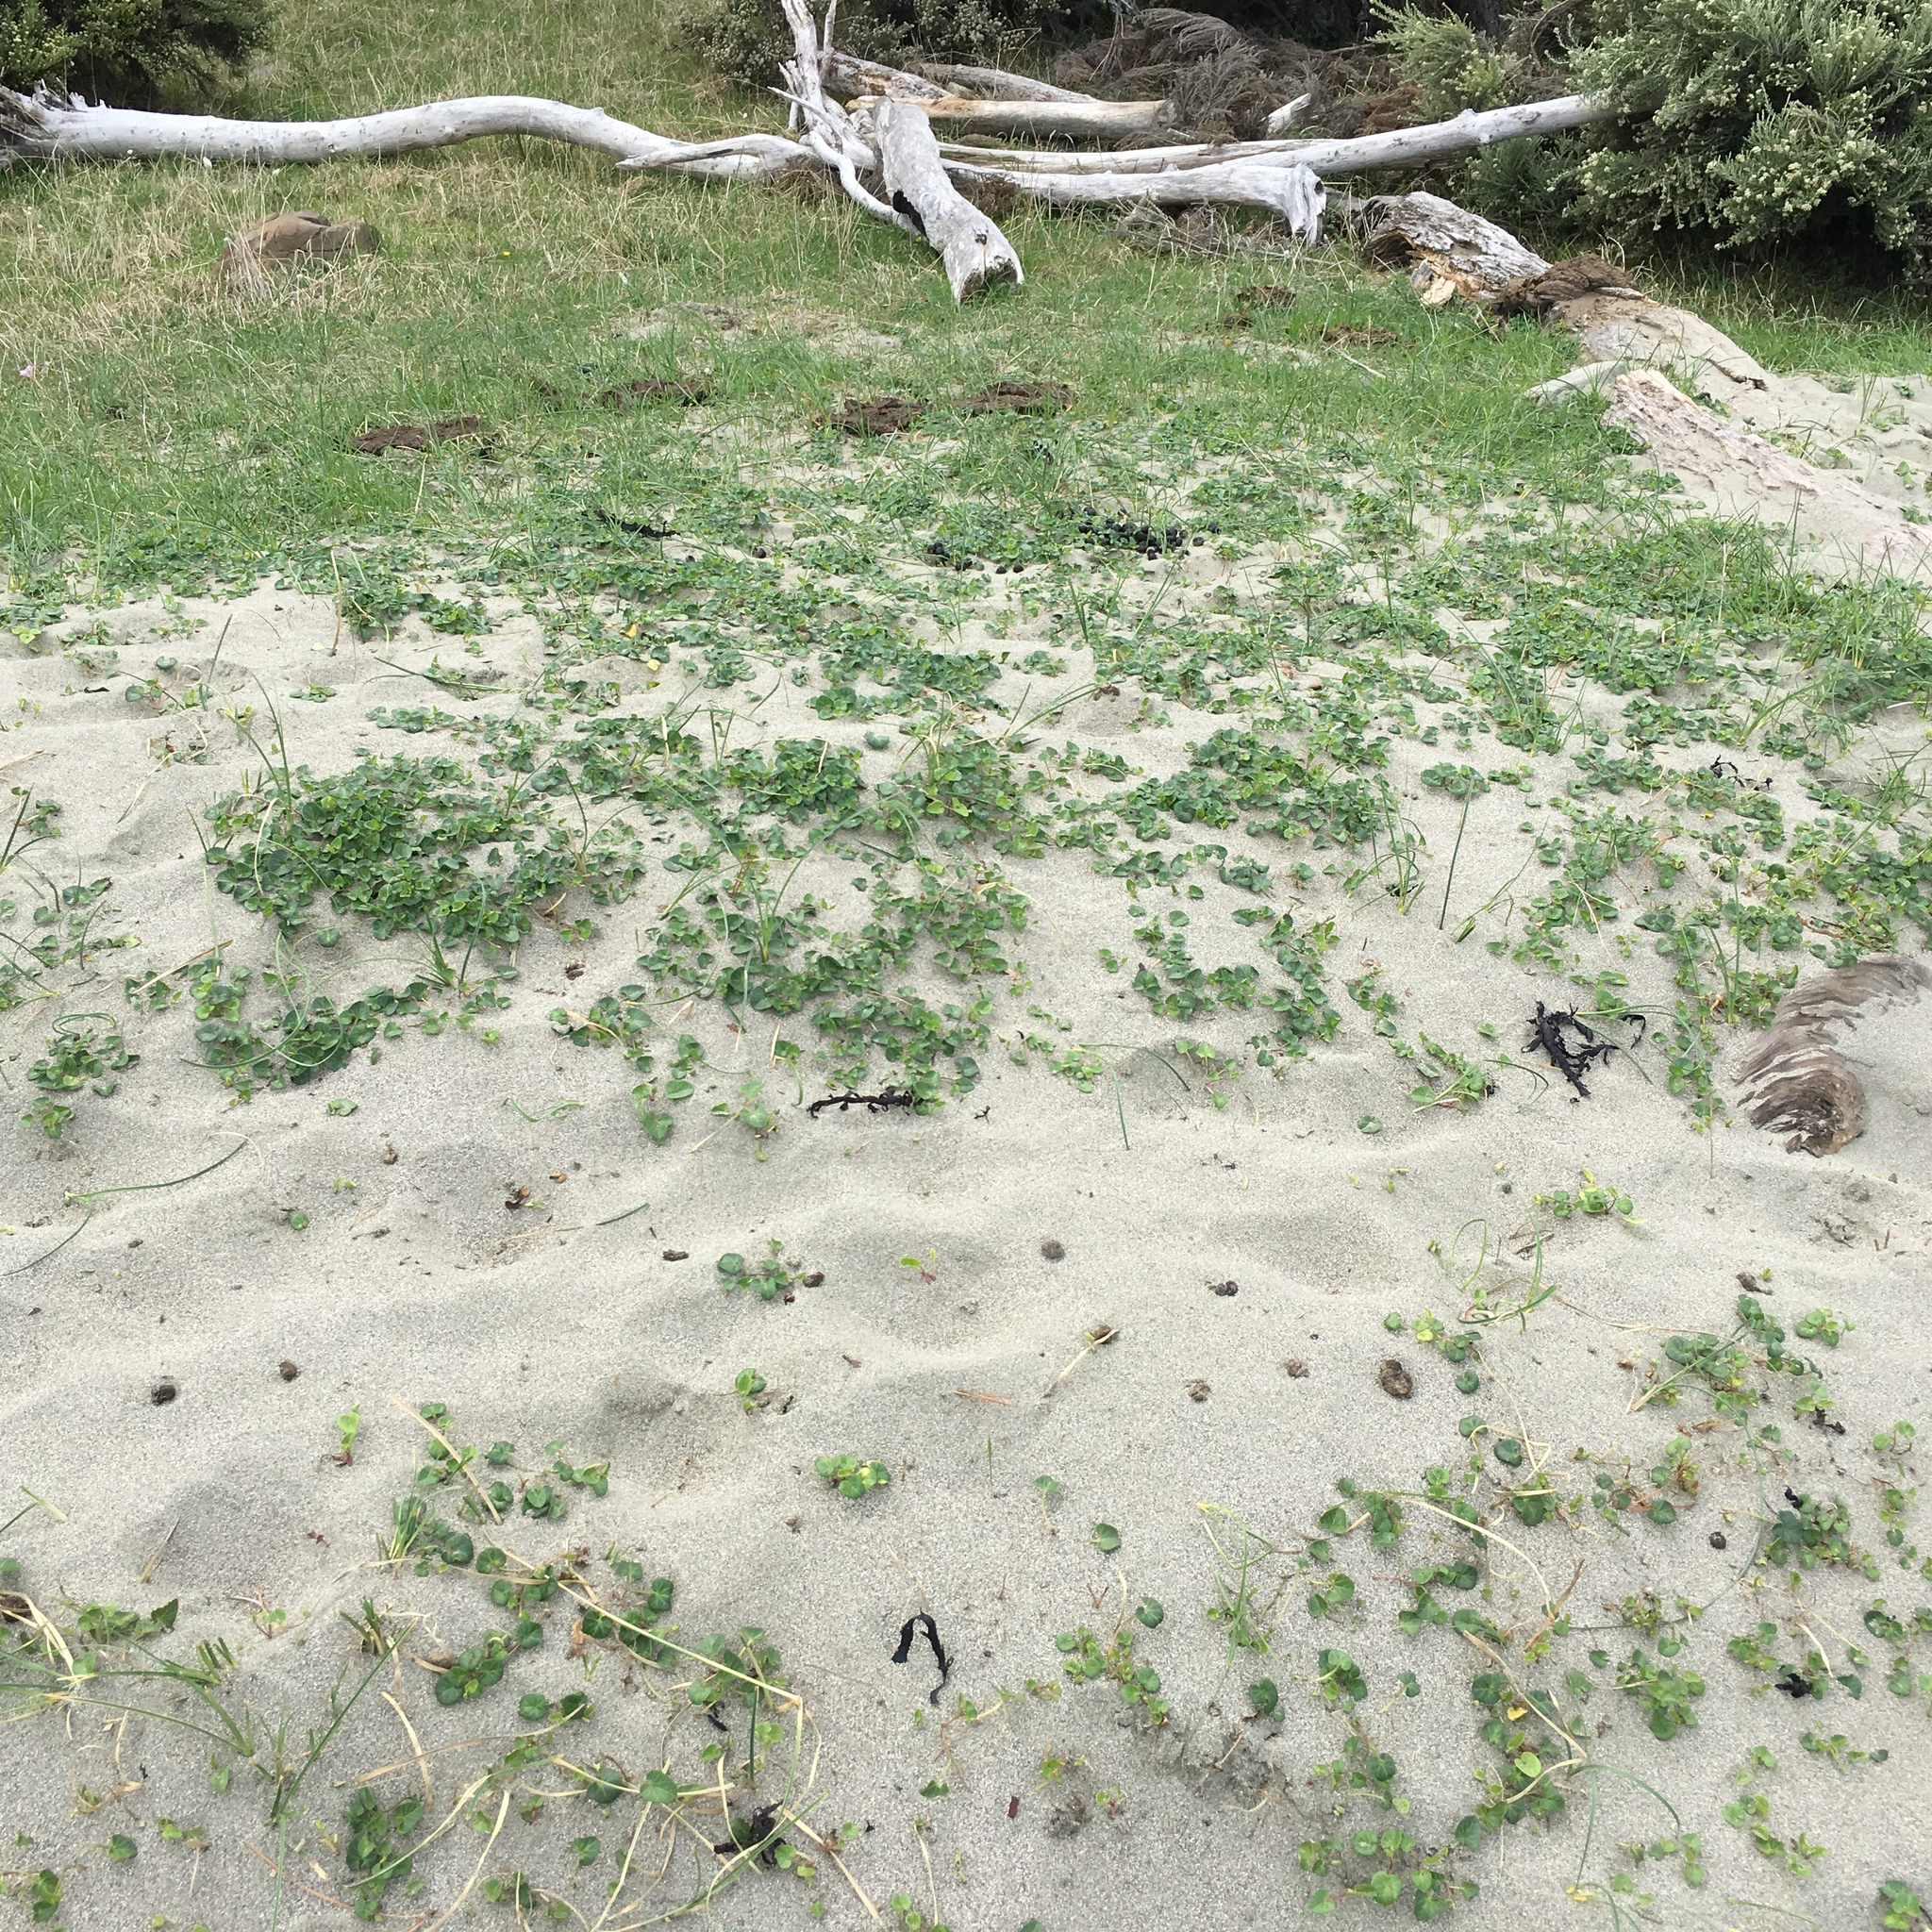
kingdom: Plantae
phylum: Tracheophyta
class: Magnoliopsida
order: Solanales
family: Convolvulaceae
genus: Calystegia
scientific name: Calystegia soldanella
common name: Sea bindweed
